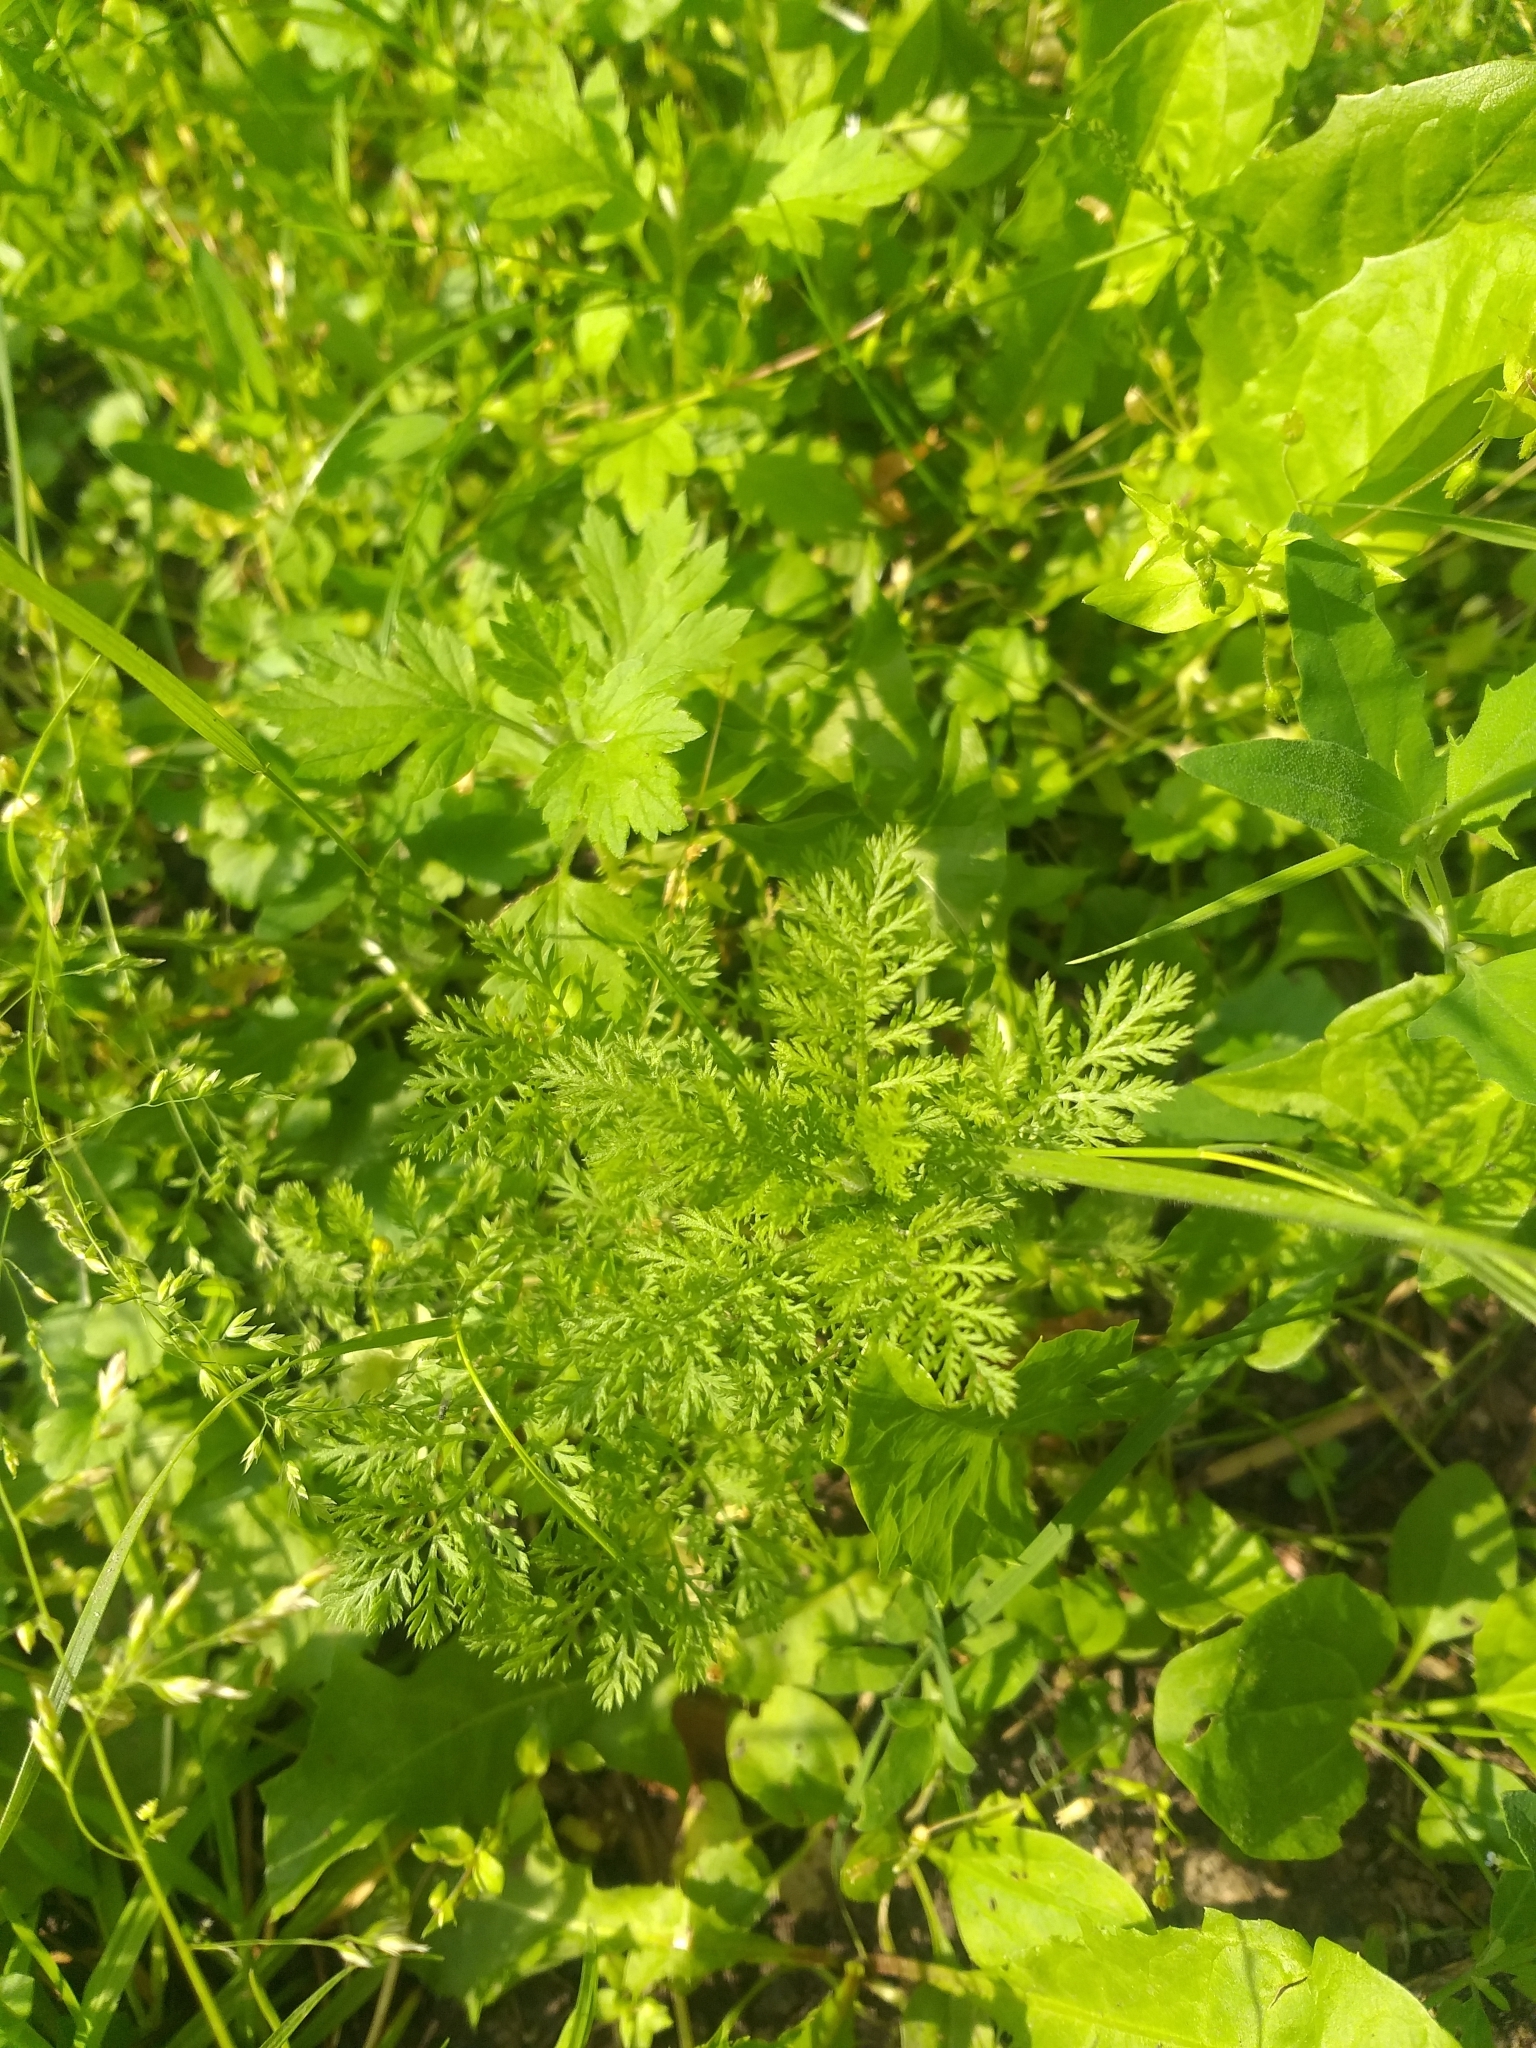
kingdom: Plantae
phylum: Tracheophyta
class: Magnoliopsida
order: Asterales
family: Asteraceae
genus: Achillea
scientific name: Achillea nobilis
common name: Noble yarrow
